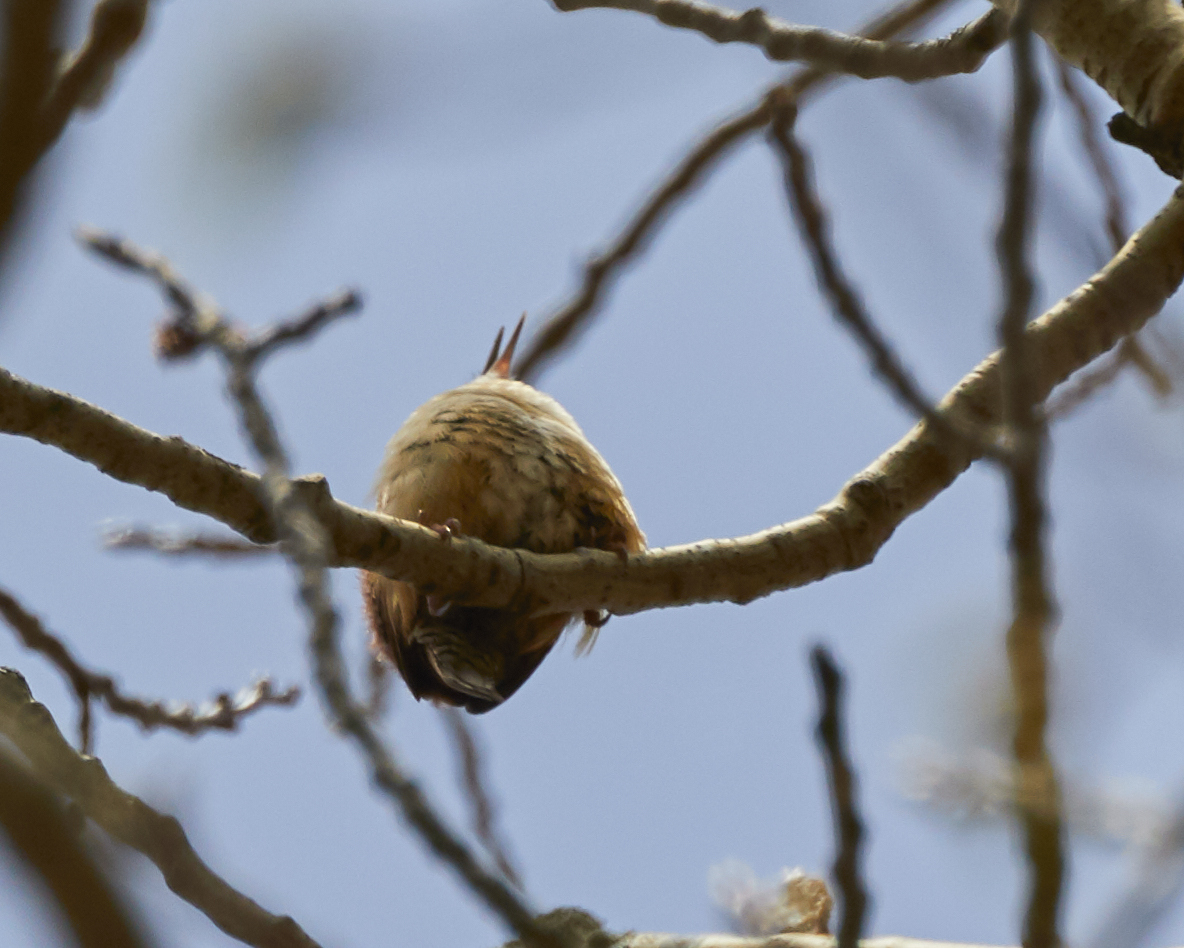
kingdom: Animalia
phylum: Chordata
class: Aves
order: Passeriformes
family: Troglodytidae
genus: Thryothorus
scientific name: Thryothorus ludovicianus
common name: Carolina wren
